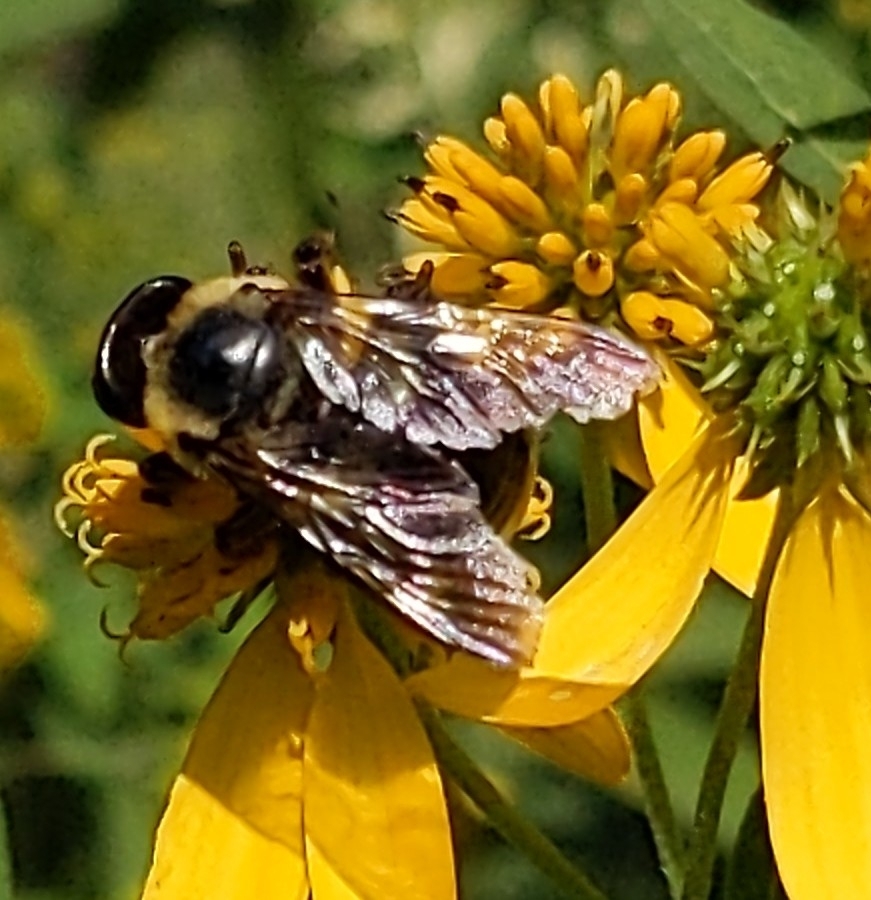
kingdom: Animalia
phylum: Arthropoda
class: Insecta
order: Hymenoptera
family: Apidae
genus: Xylocopa
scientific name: Xylocopa virginica
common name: Carpenter bee
